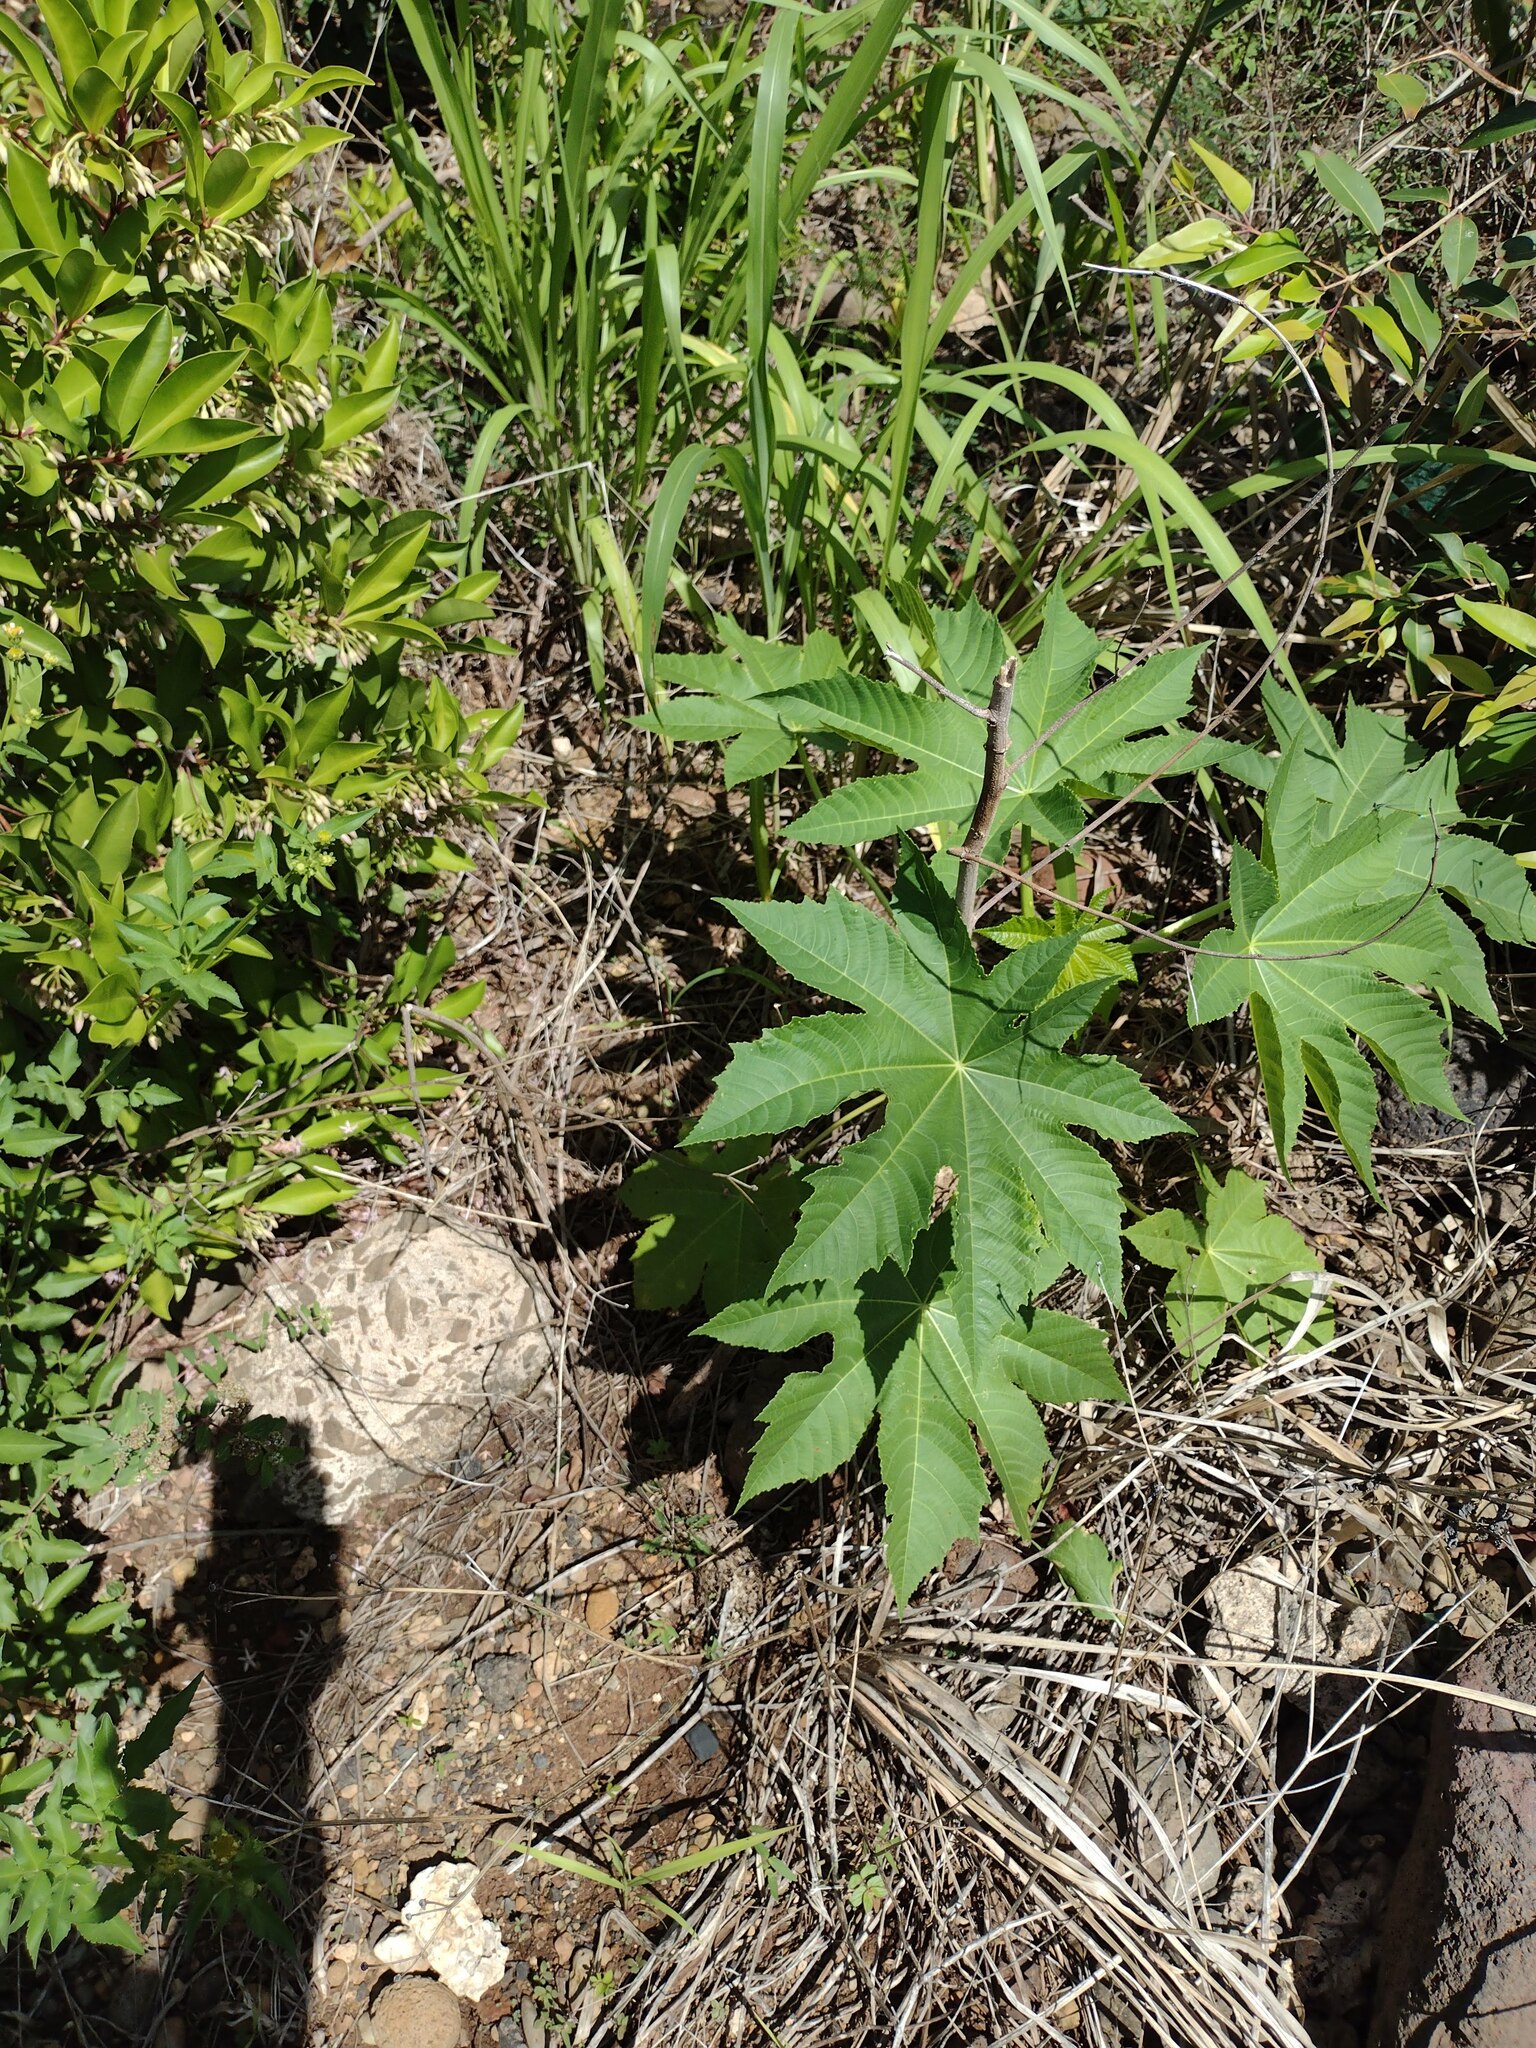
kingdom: Plantae
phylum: Tracheophyta
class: Magnoliopsida
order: Malpighiales
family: Euphorbiaceae
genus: Ricinus
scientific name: Ricinus communis
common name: Castor-oil-plant
